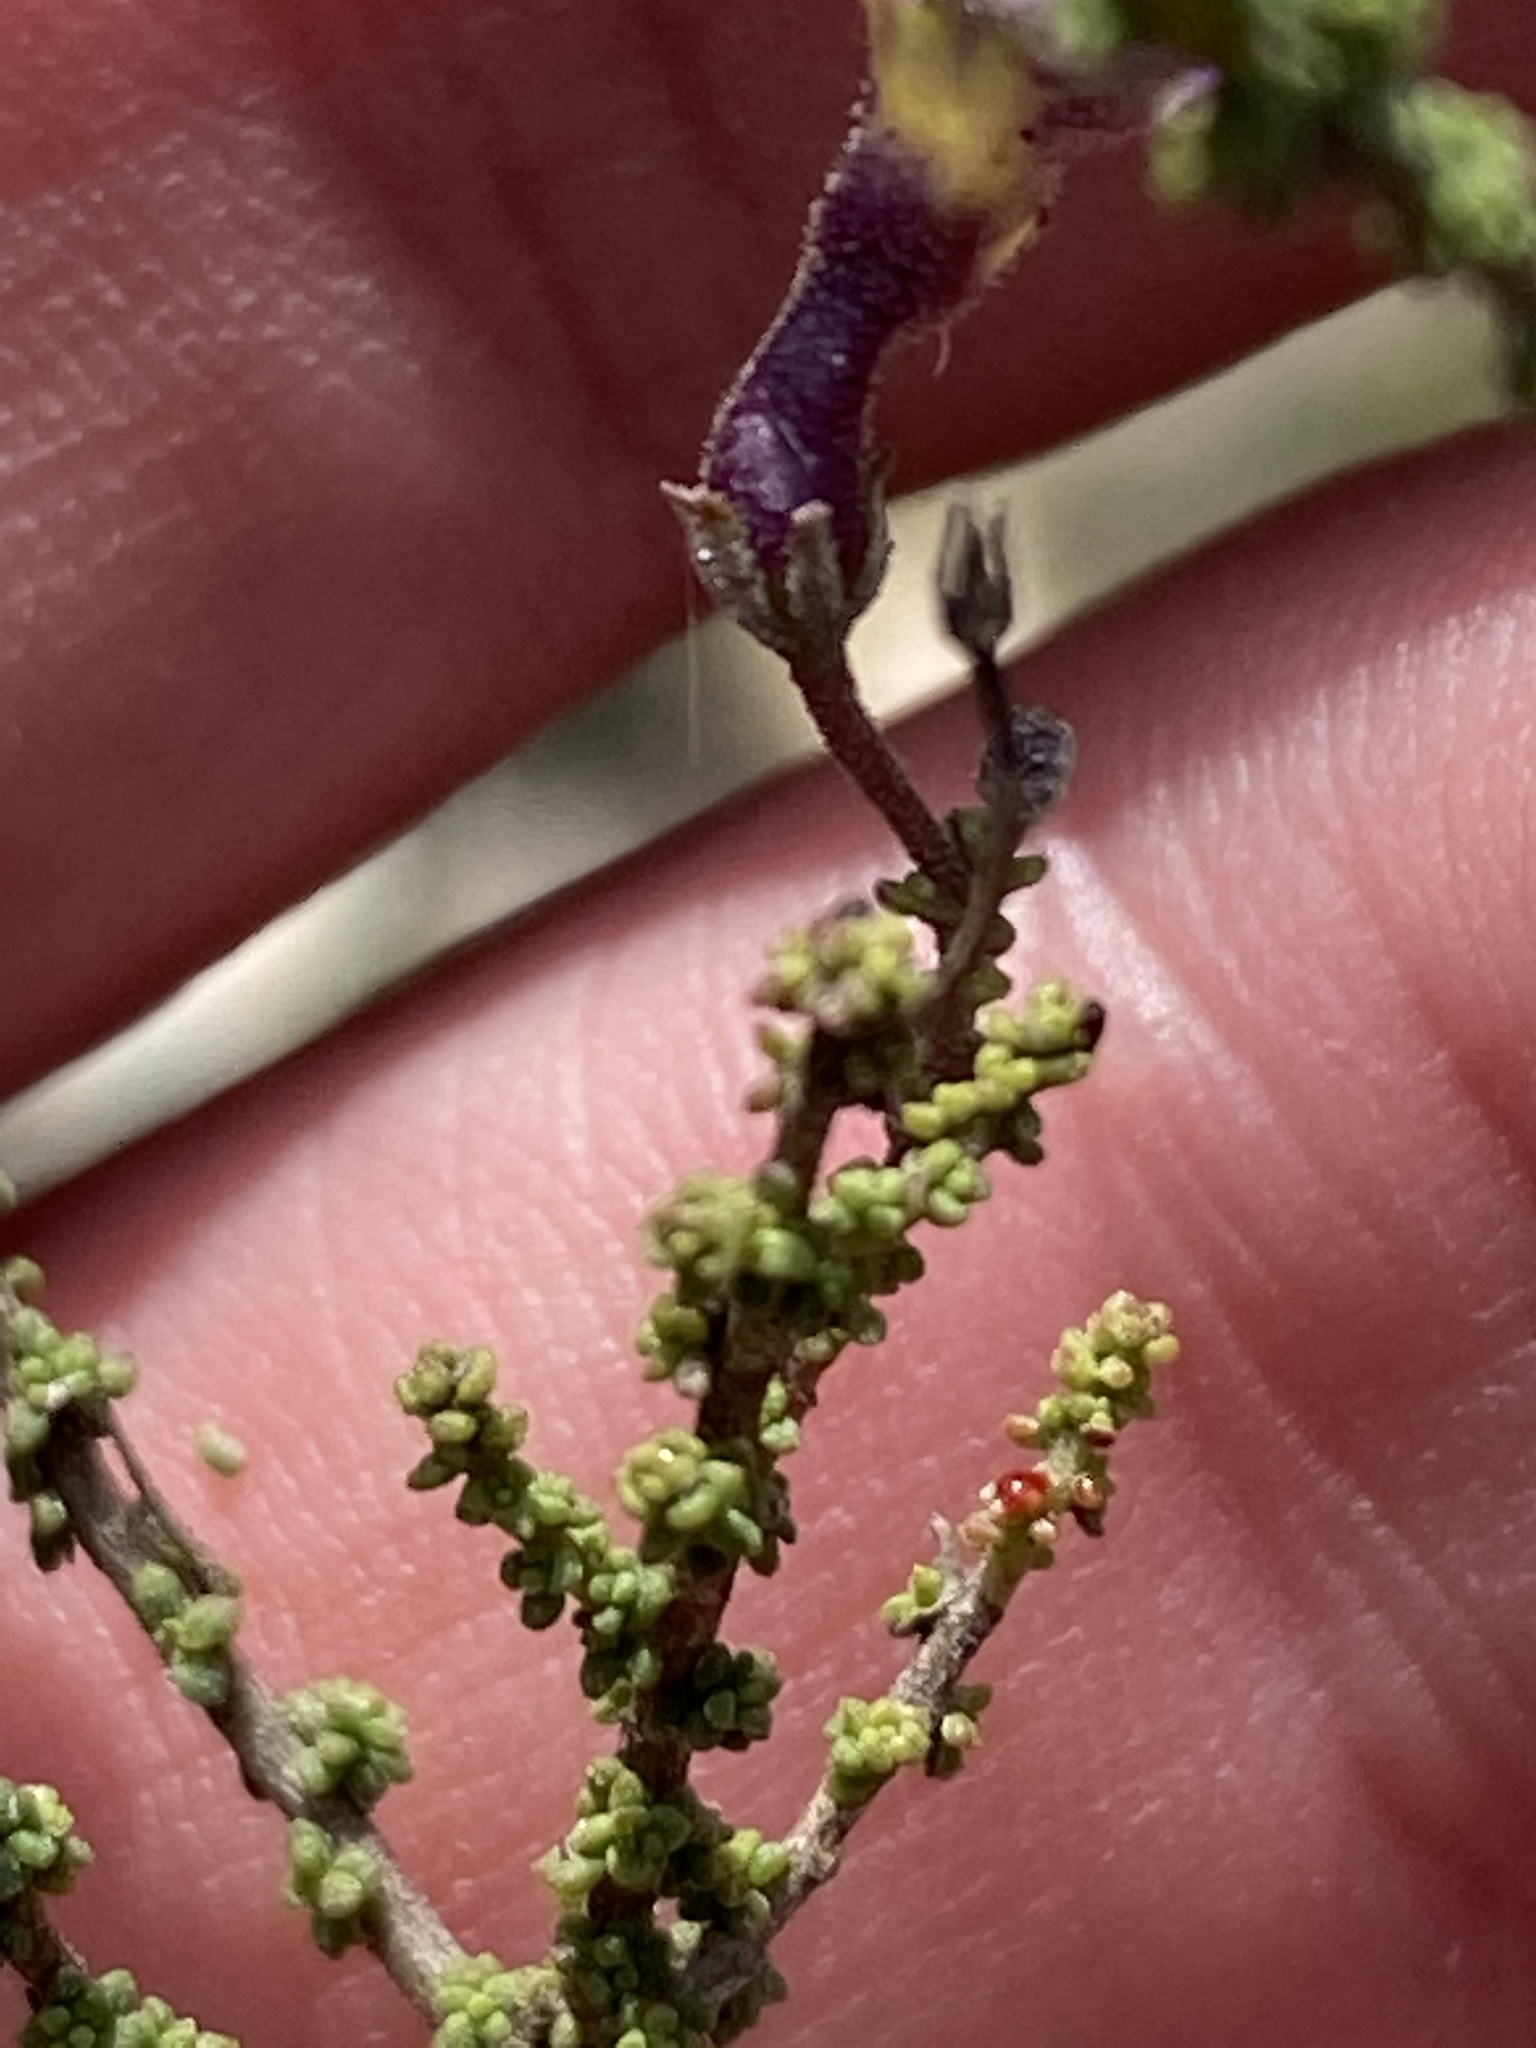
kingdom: Plantae
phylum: Tracheophyta
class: Magnoliopsida
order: Lamiales
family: Scrophulariaceae
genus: Jamesbrittenia
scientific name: Jamesbrittenia calciphila
